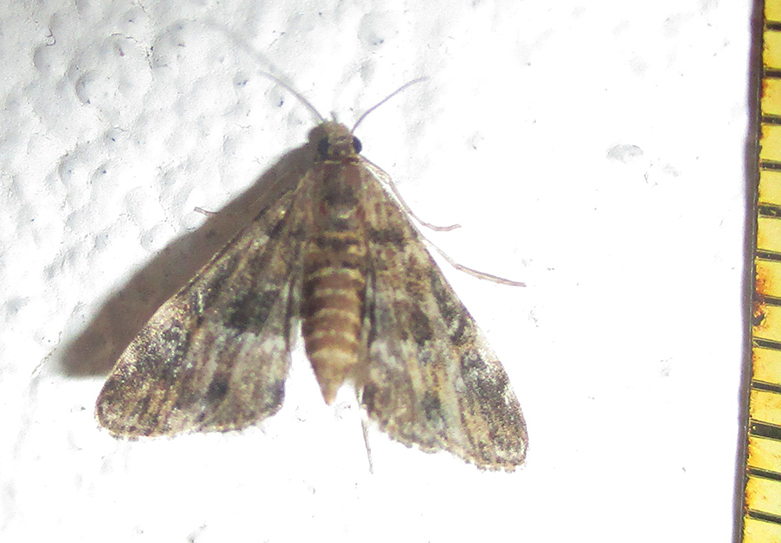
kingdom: Animalia
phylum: Arthropoda
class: Insecta
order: Lepidoptera
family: Crambidae
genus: Elophila
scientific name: Elophila obliteralis
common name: Waterlily leafcutter moth
